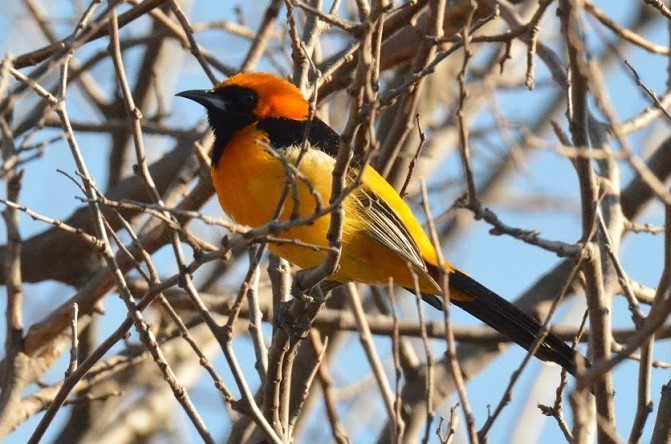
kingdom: Animalia
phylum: Chordata
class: Aves
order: Passeriformes
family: Icteridae
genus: Icterus
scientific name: Icterus cucullatus
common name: Hooded oriole
